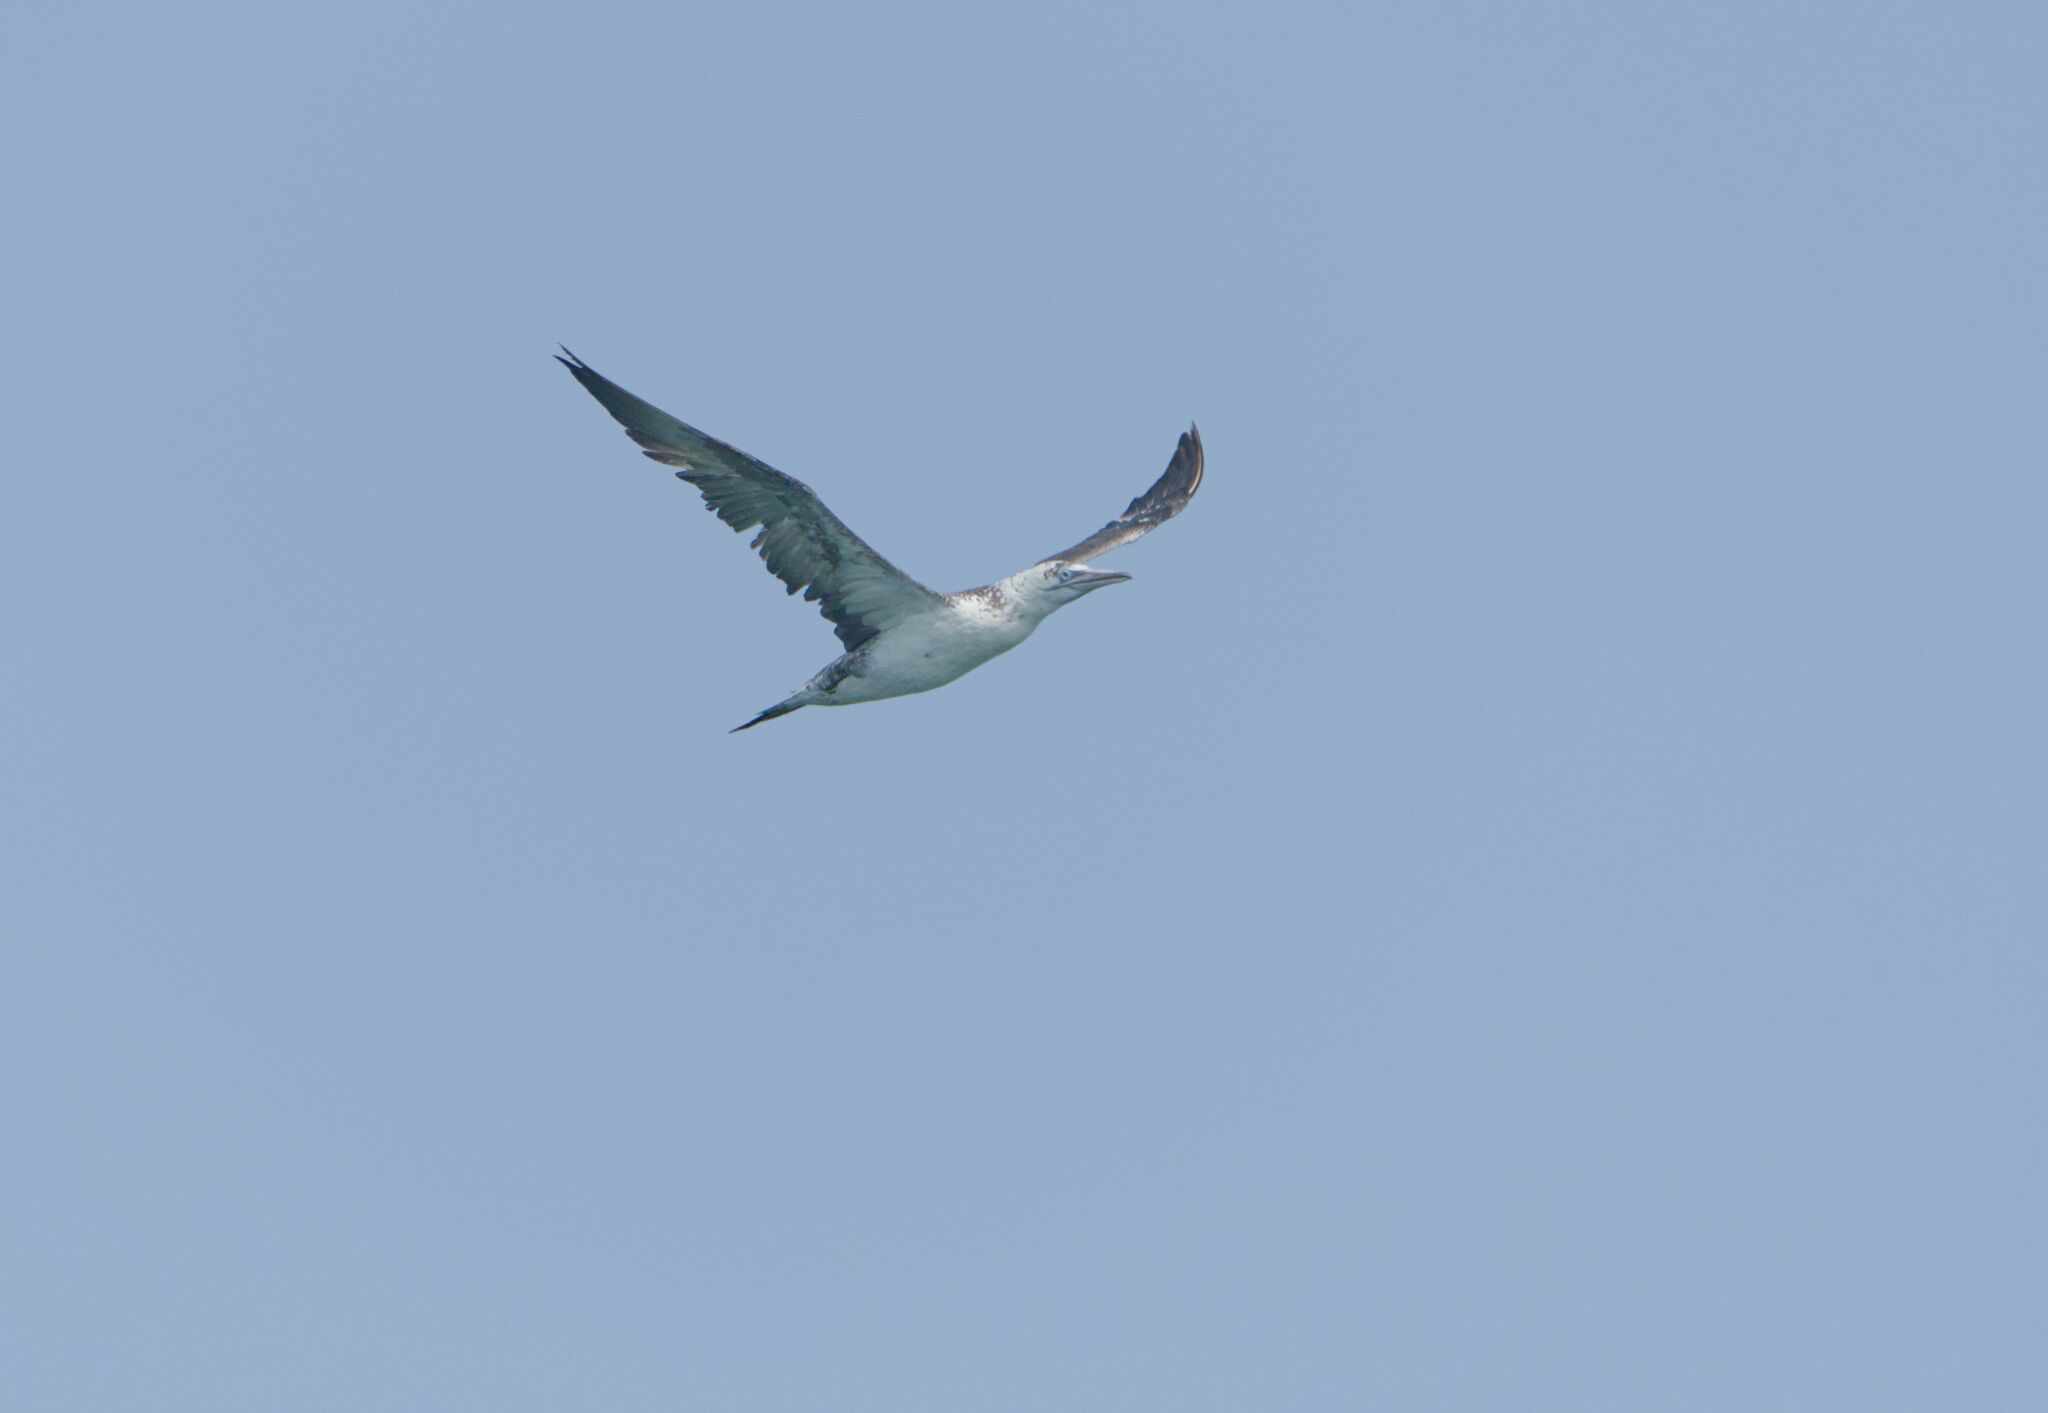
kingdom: Animalia
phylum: Chordata
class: Aves
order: Suliformes
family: Sulidae
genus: Morus
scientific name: Morus bassanus
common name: Northern gannet
